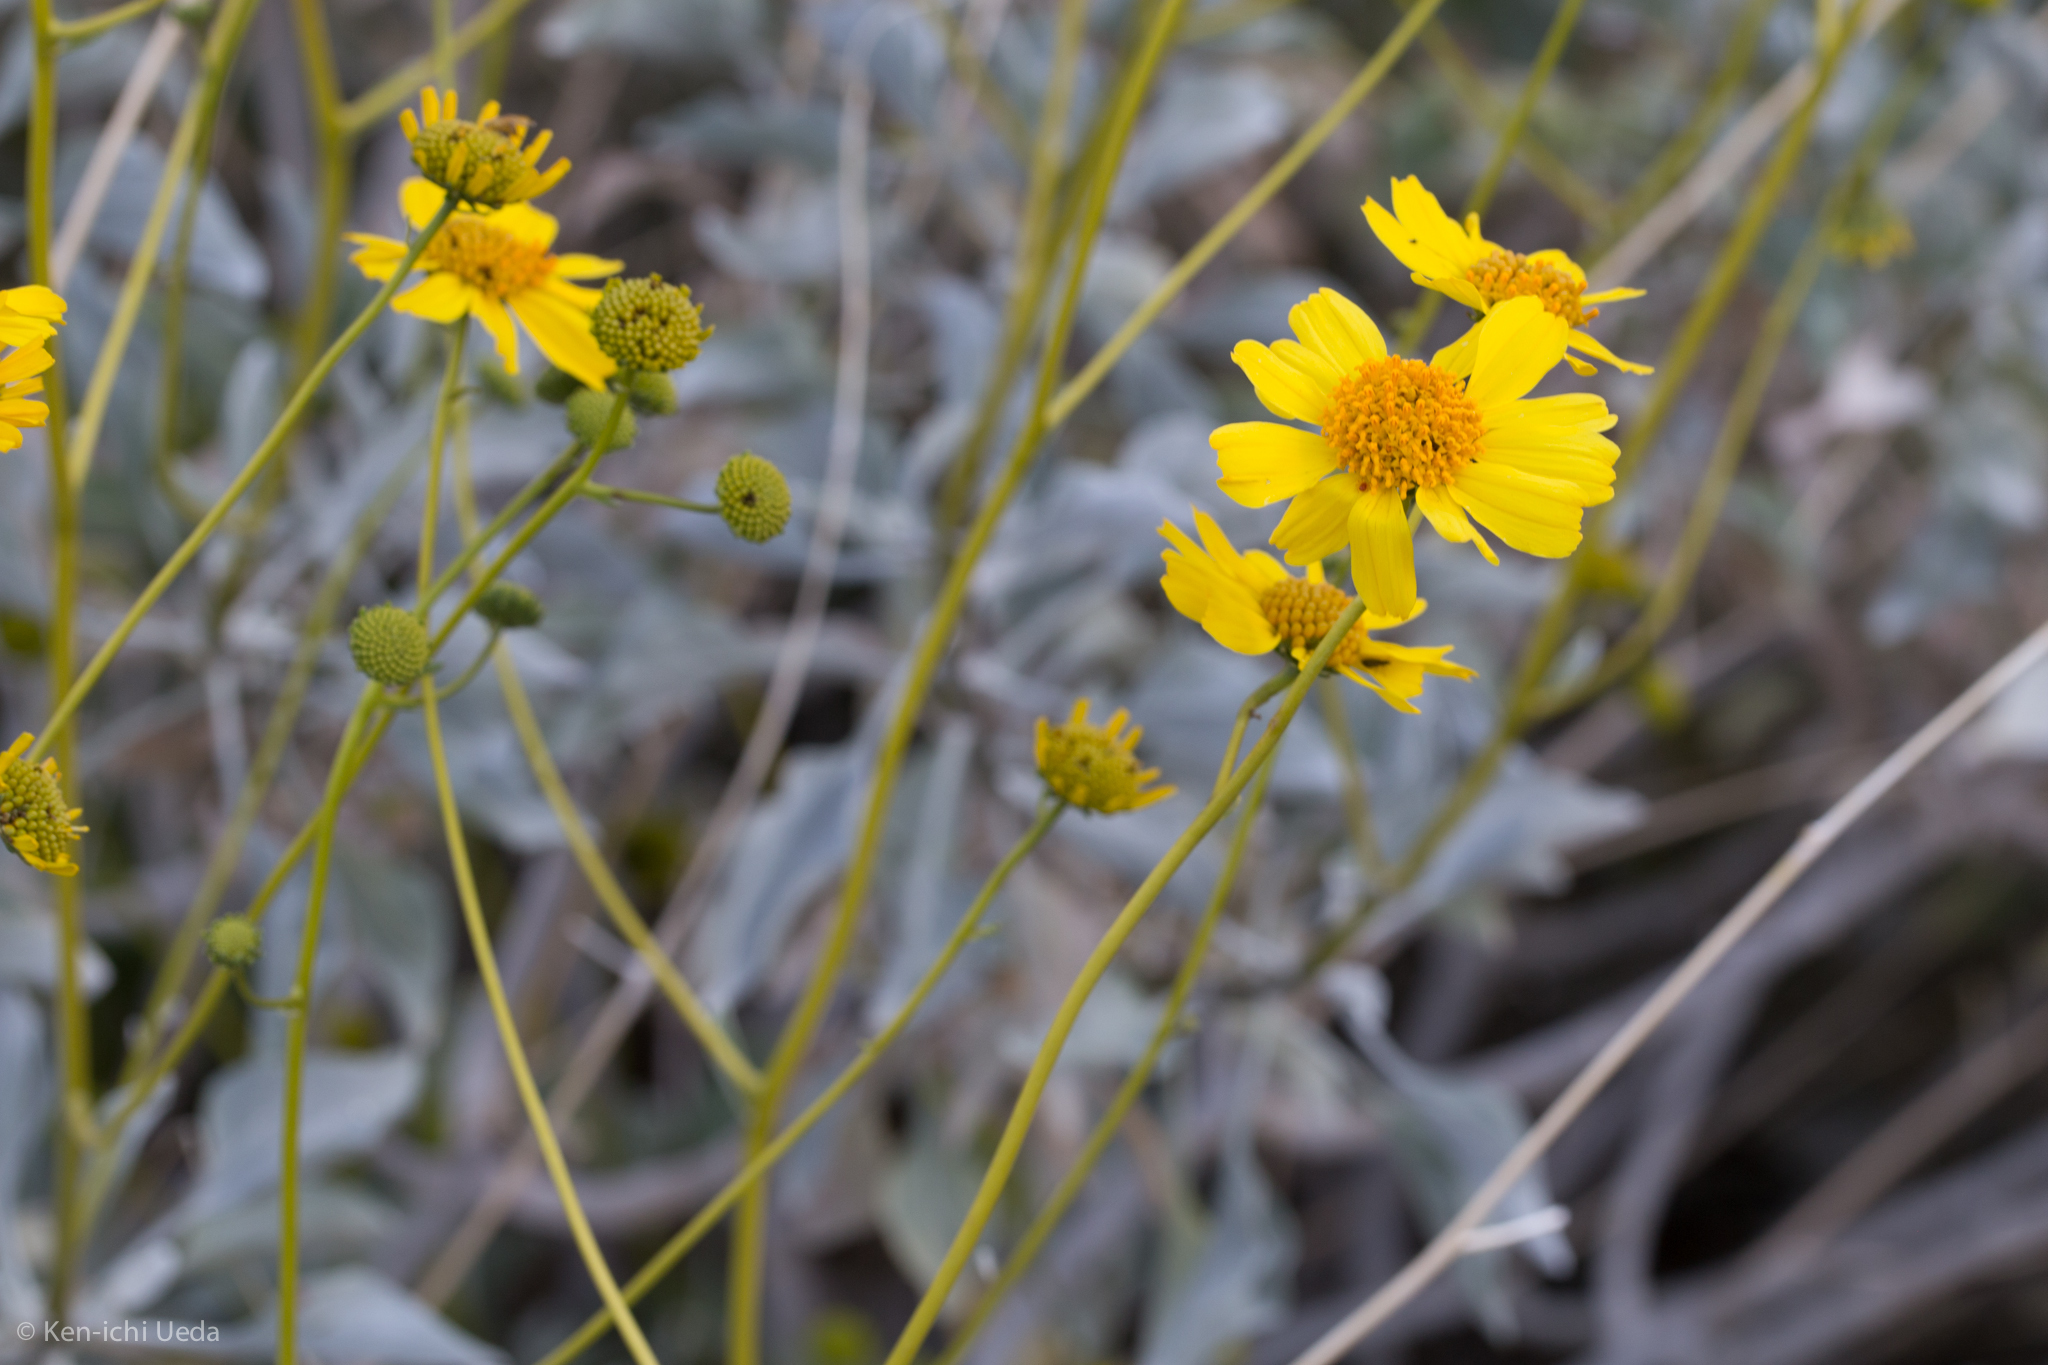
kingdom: Plantae
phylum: Tracheophyta
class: Magnoliopsida
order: Asterales
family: Asteraceae
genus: Encelia
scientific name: Encelia farinosa
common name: Brittlebush
